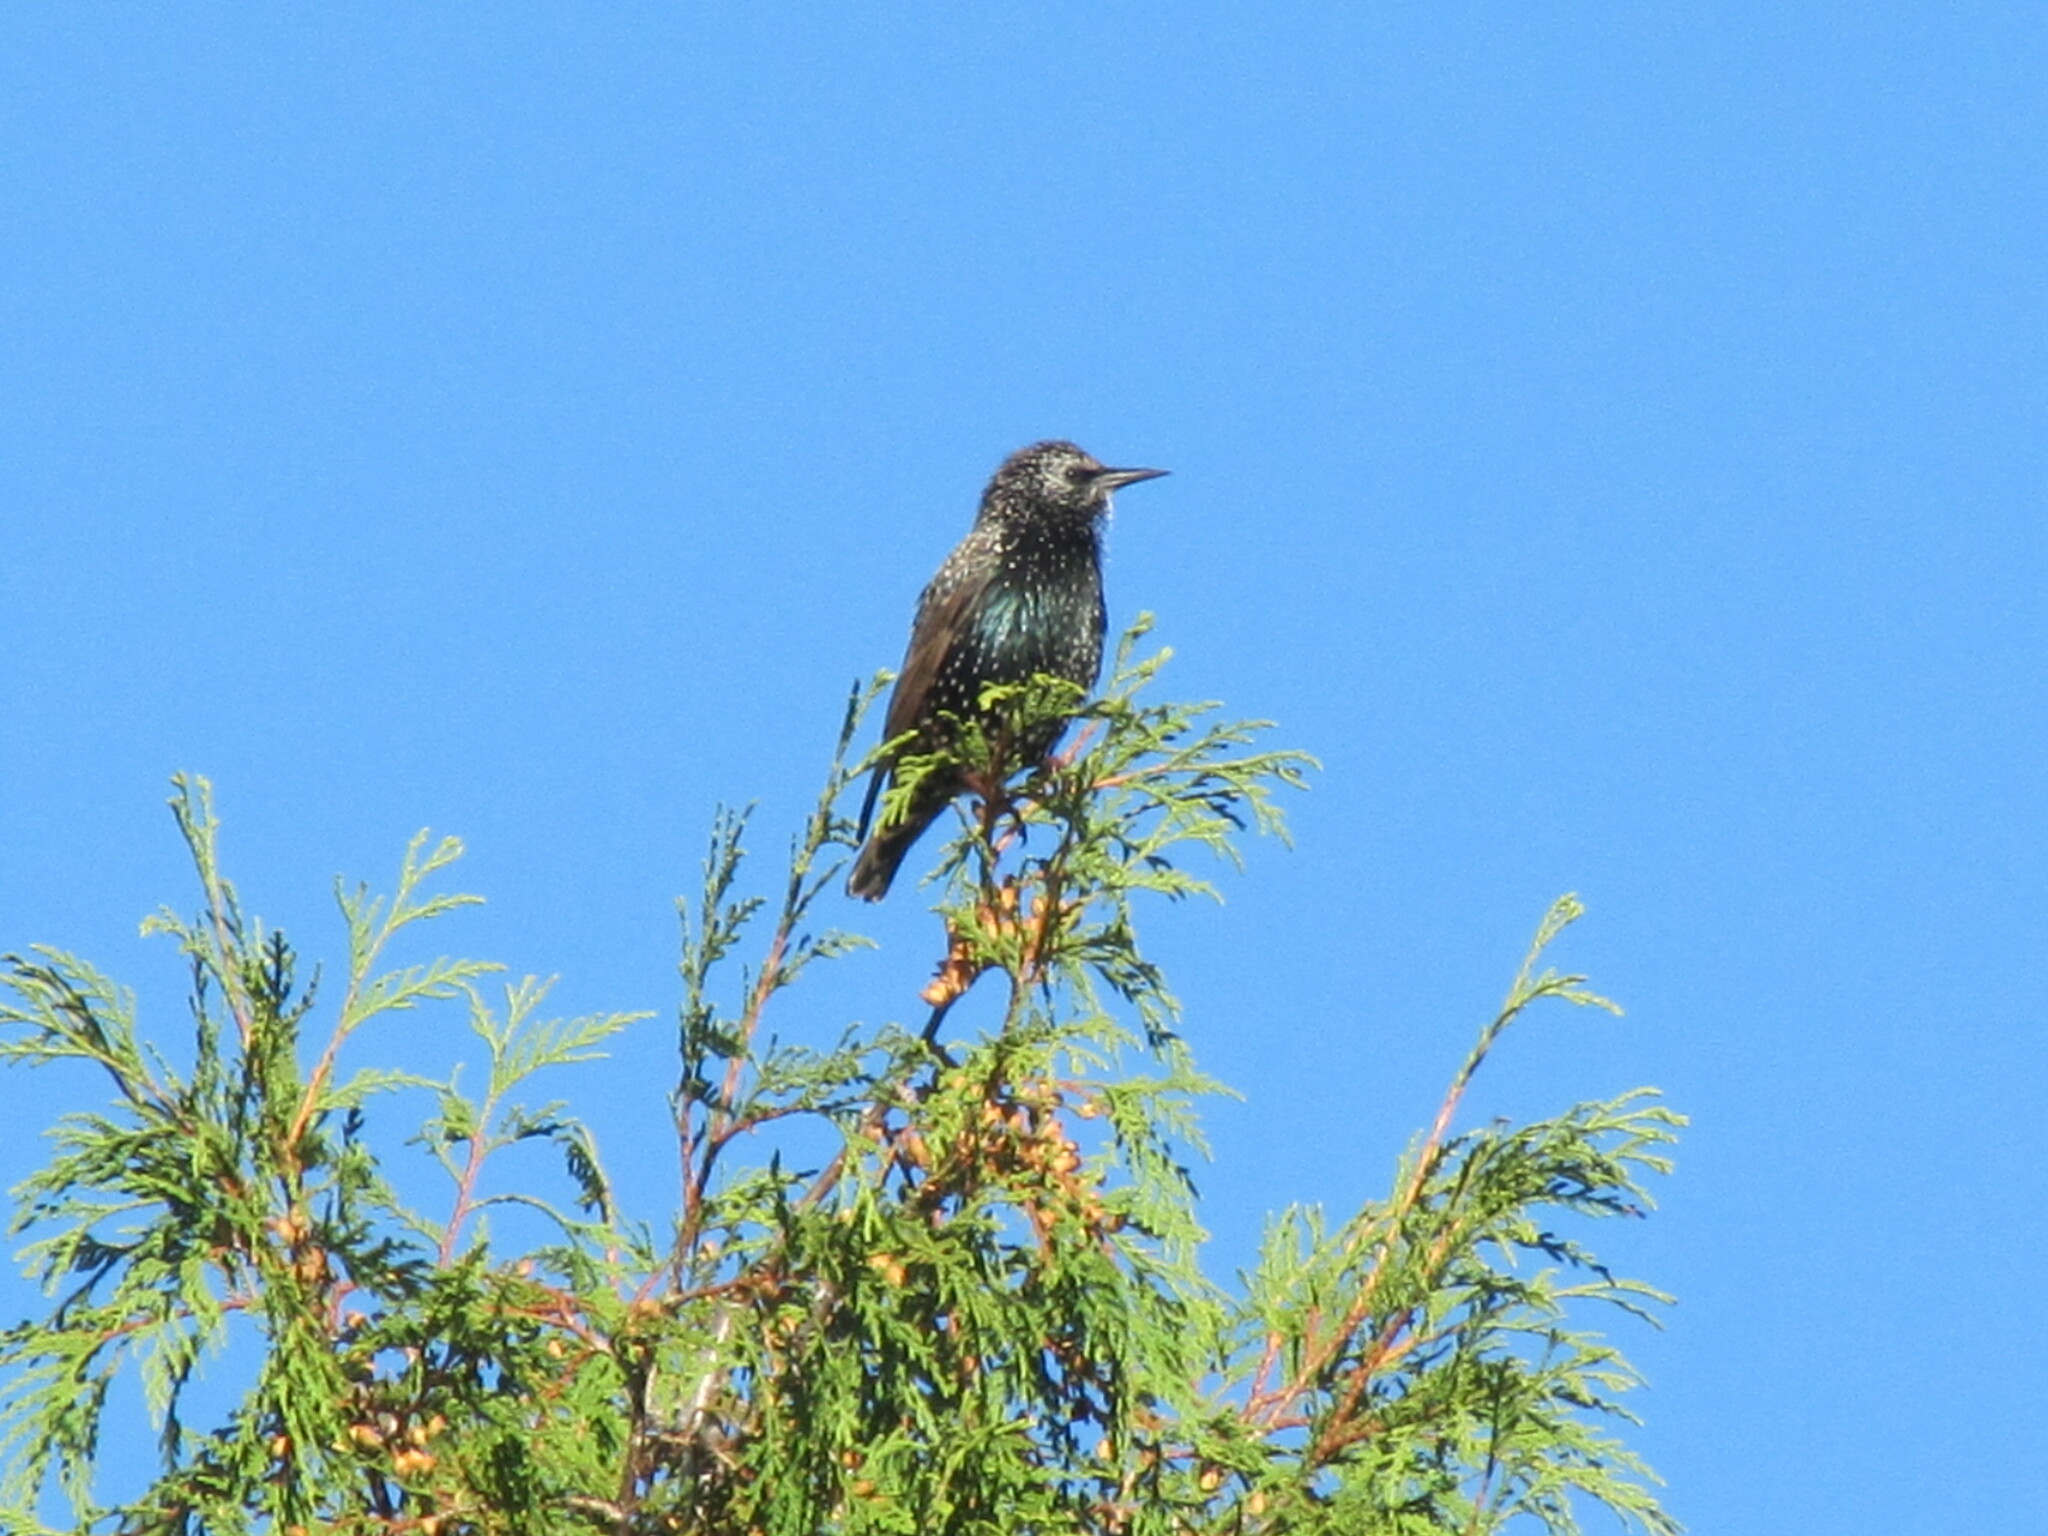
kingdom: Animalia
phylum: Chordata
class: Aves
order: Passeriformes
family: Sturnidae
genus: Sturnus
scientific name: Sturnus vulgaris
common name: Common starling
